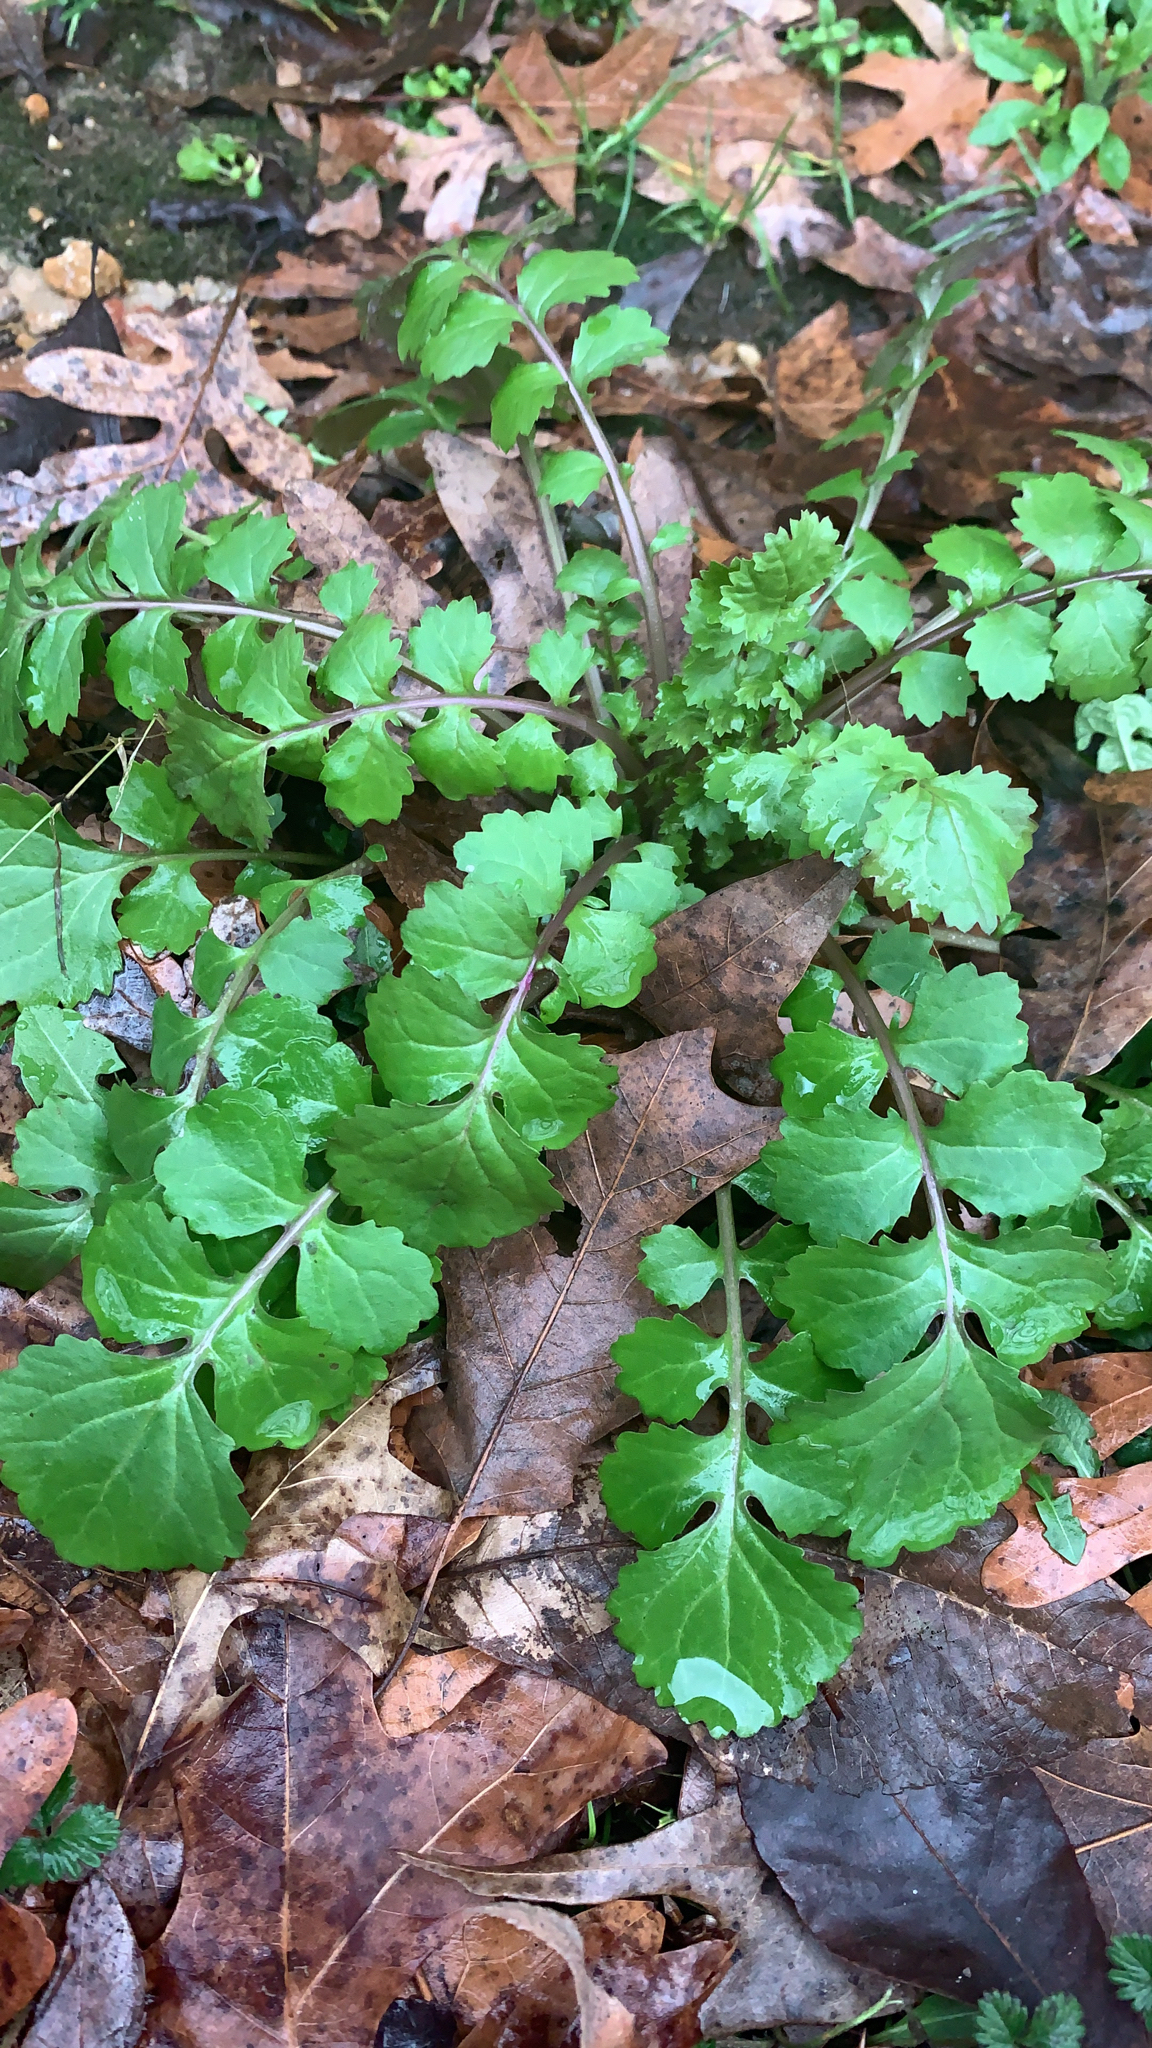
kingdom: Plantae
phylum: Tracheophyta
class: Magnoliopsida
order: Asterales
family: Asteraceae
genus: Packera
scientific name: Packera glabella
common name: Butterweed
